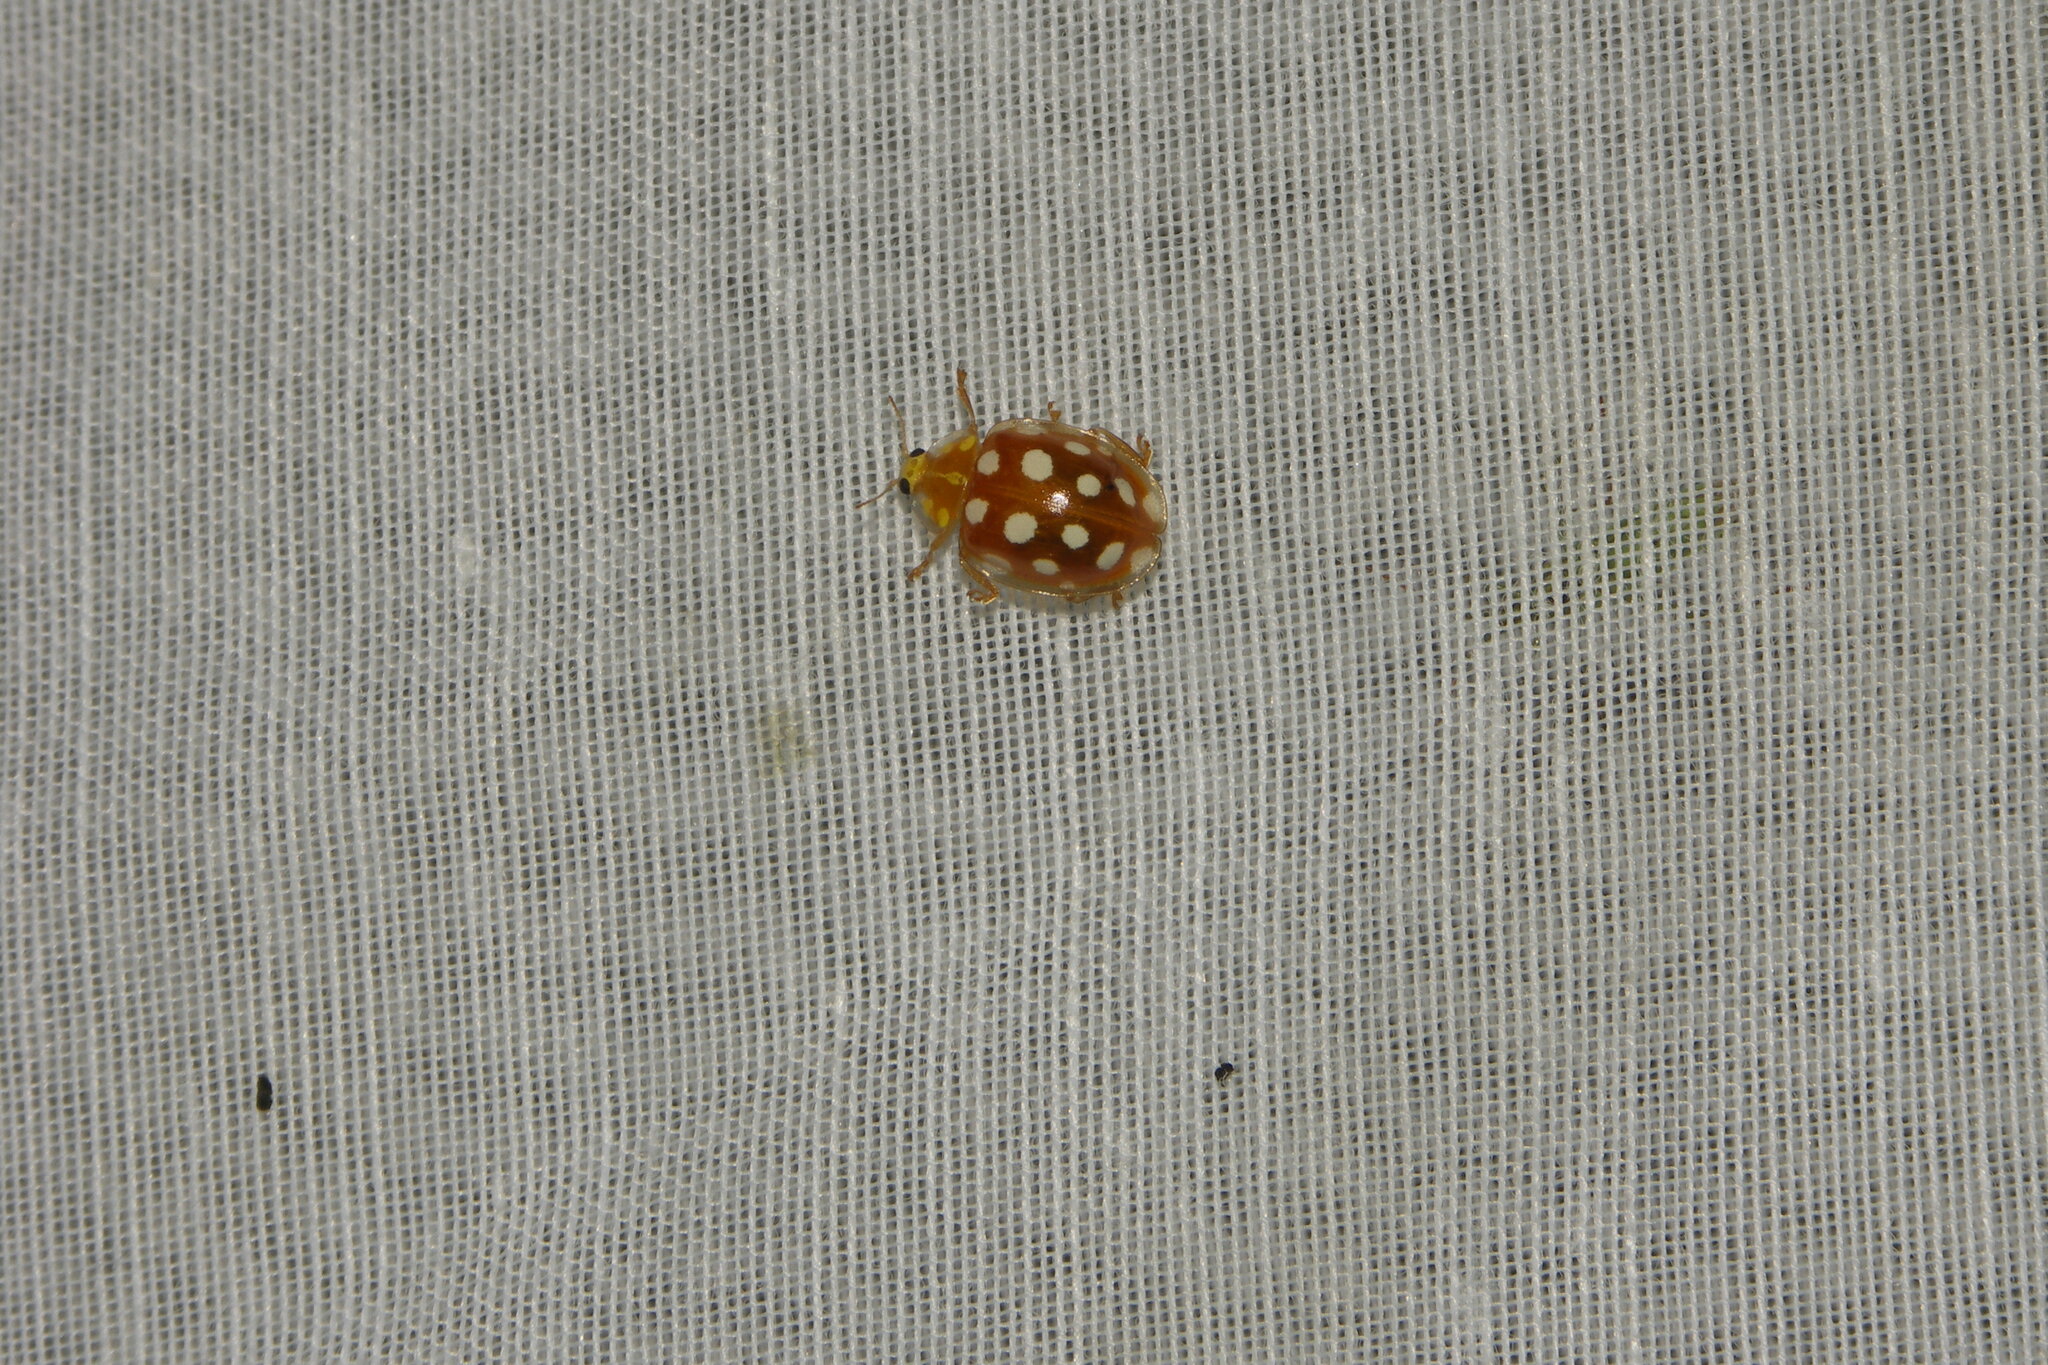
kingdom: Animalia
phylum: Arthropoda
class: Insecta
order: Coleoptera
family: Coccinellidae
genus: Halyzia
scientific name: Halyzia sedecimguttata
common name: Orange ladybird
